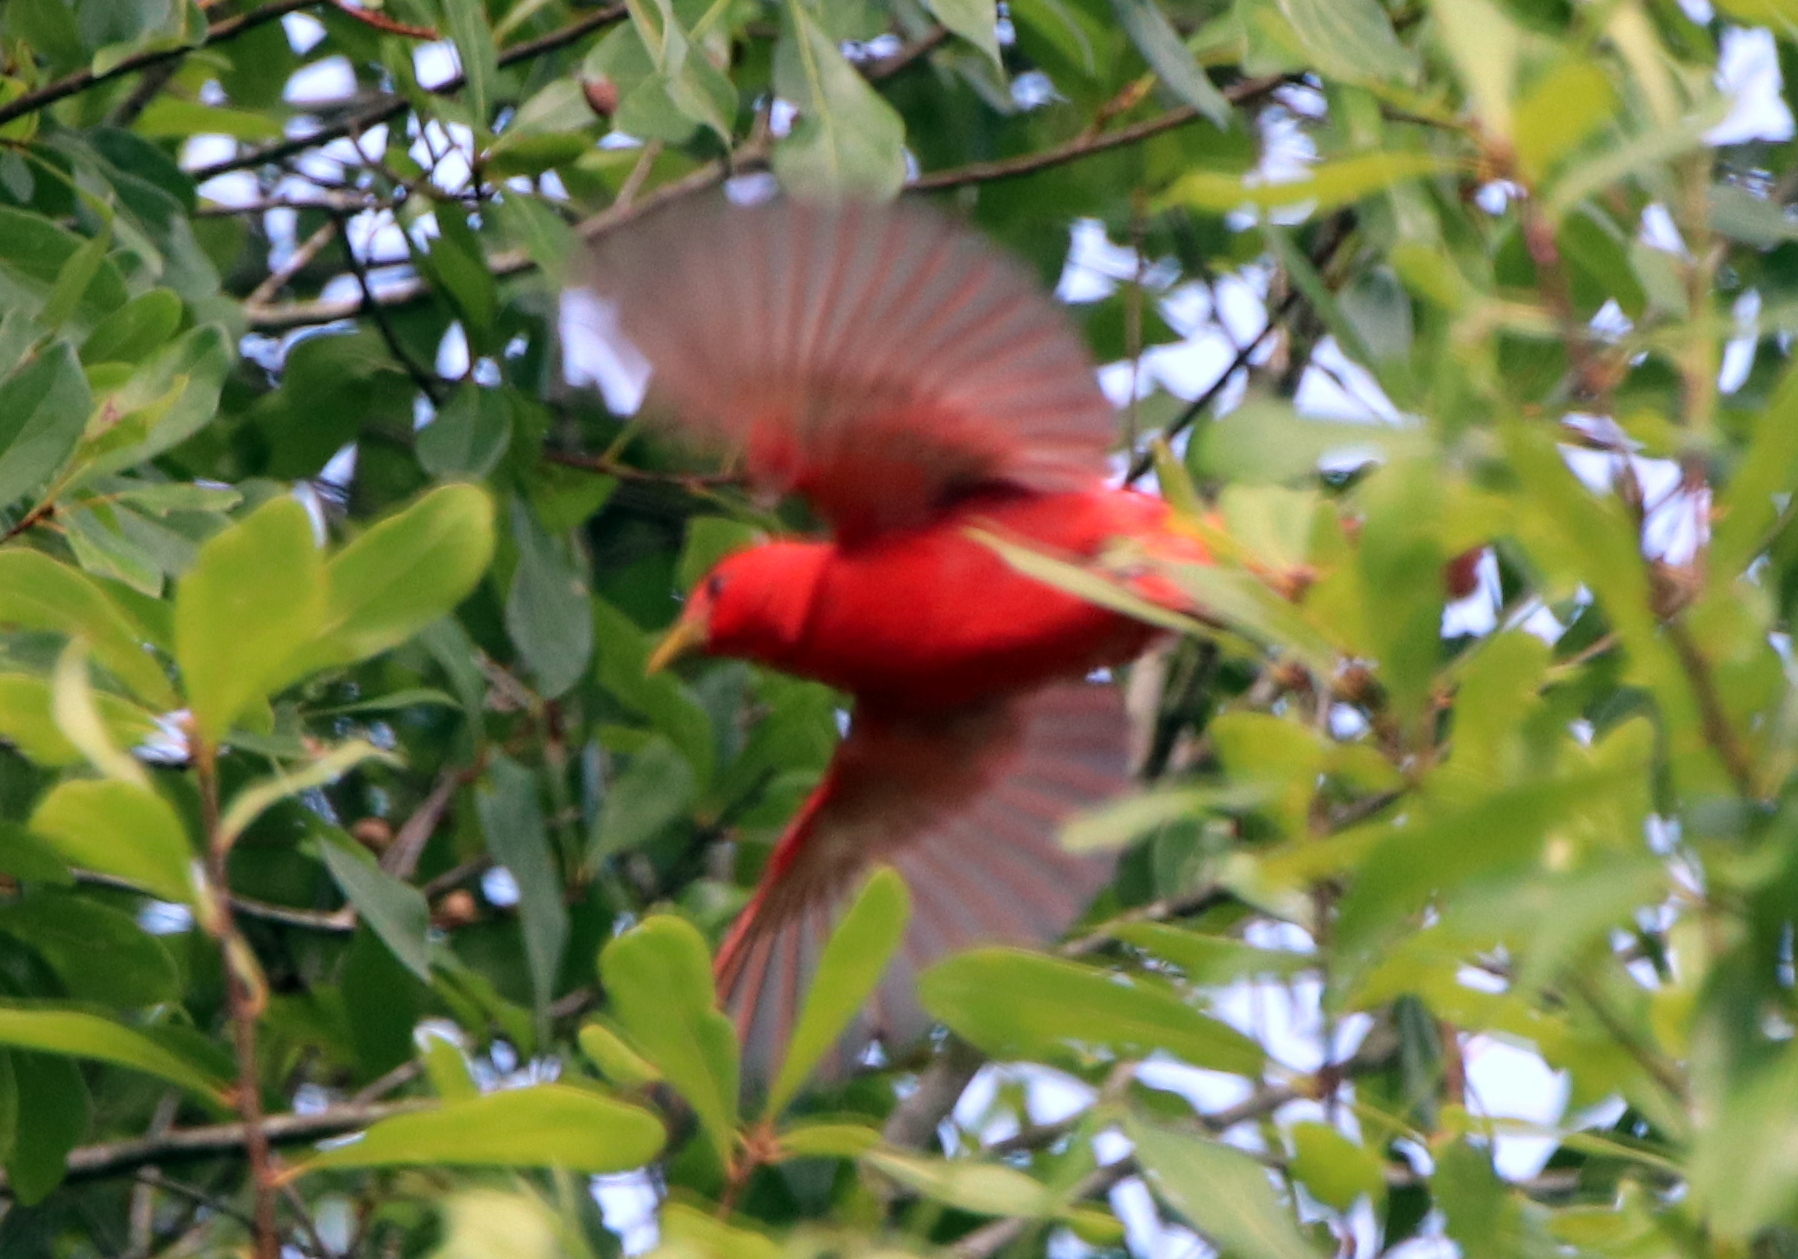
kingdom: Animalia
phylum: Chordata
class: Aves
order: Passeriformes
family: Cardinalidae
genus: Piranga
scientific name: Piranga rubra
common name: Summer tanager
